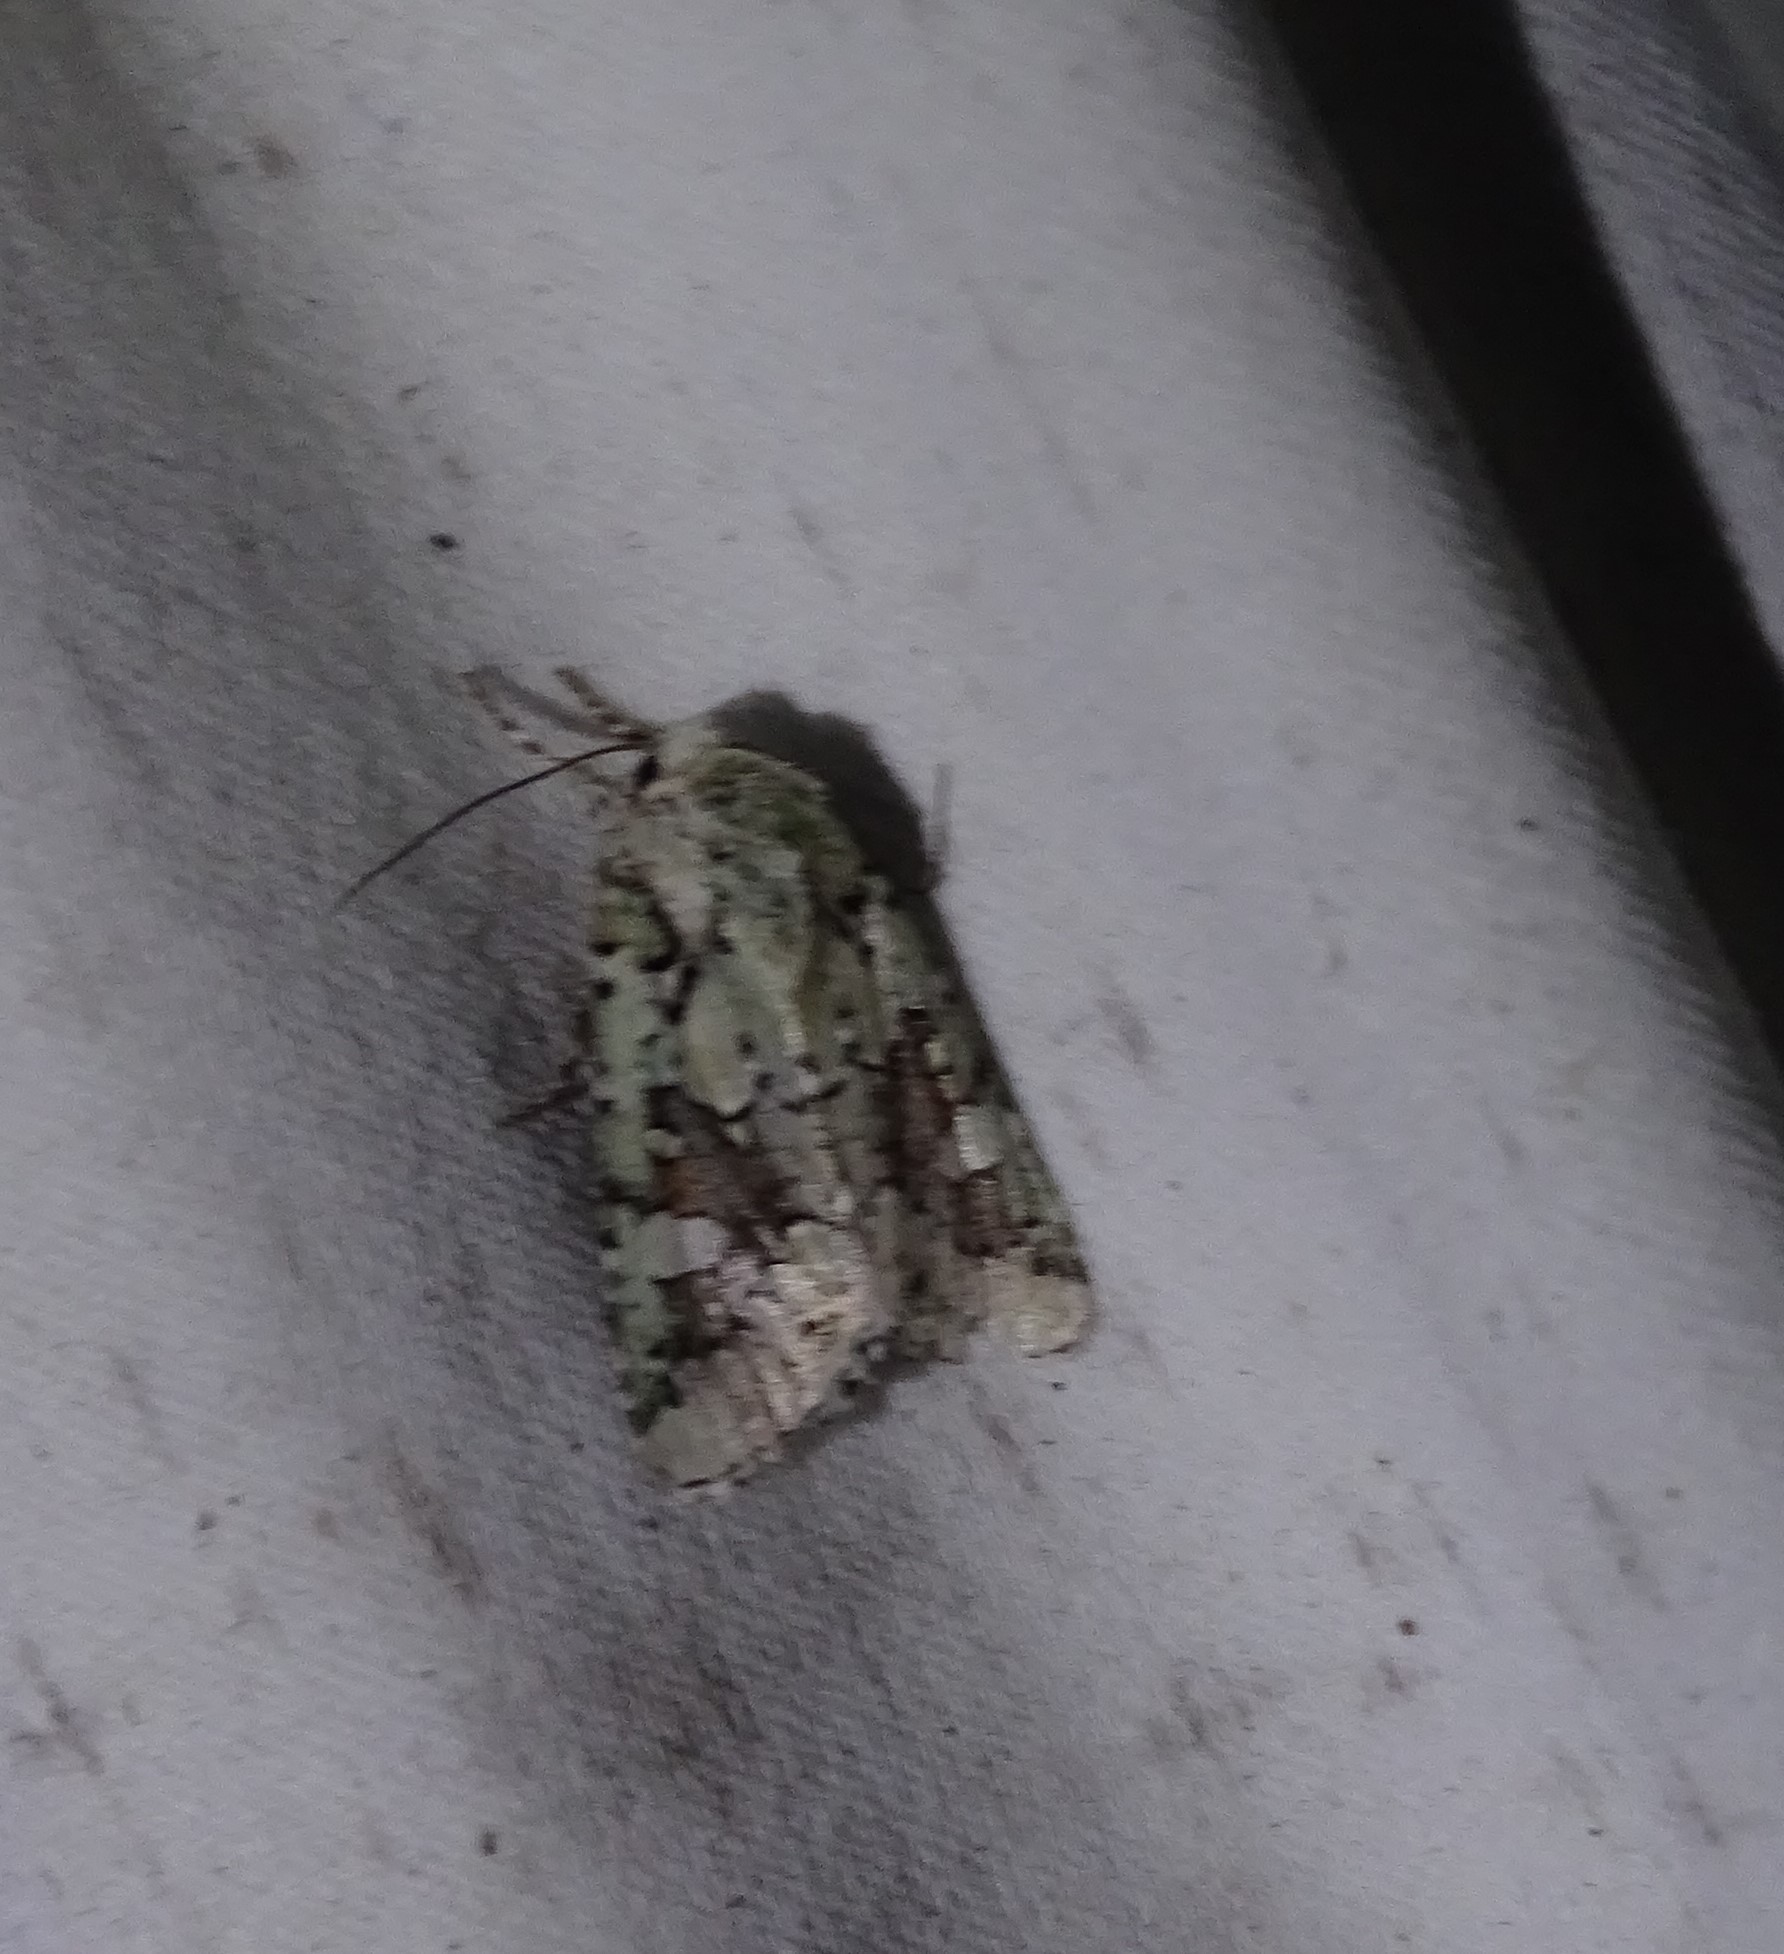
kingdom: Animalia
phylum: Arthropoda
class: Insecta
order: Lepidoptera
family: Noctuidae
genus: Lacinipolia
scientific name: Lacinipolia laudabilis
